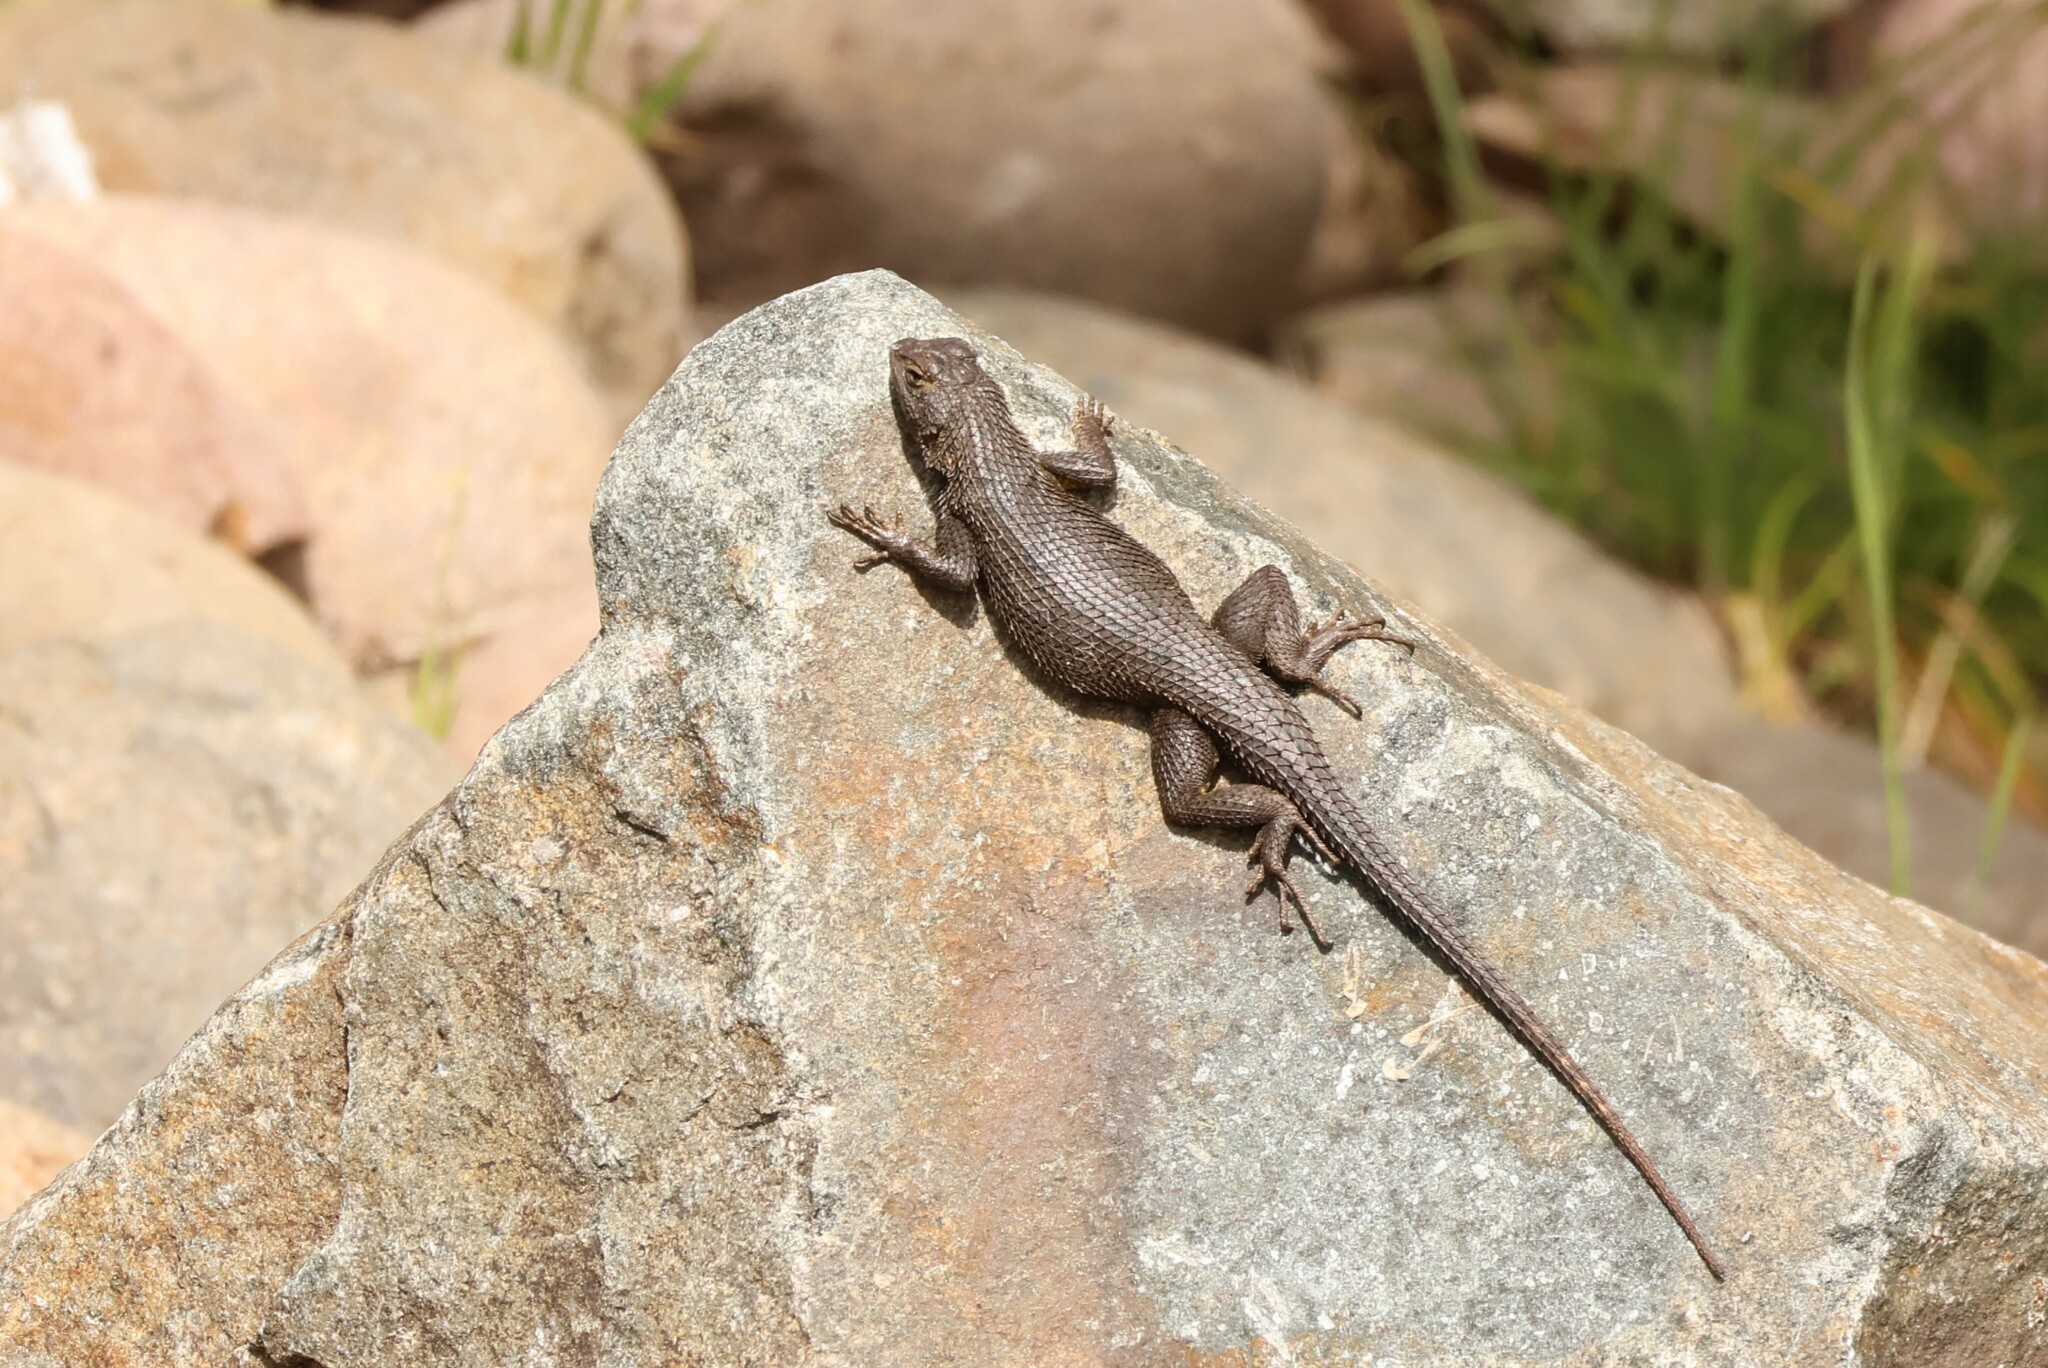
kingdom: Animalia
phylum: Chordata
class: Squamata
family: Phrynosomatidae
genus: Sceloporus
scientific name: Sceloporus occidentalis
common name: Western fence lizard
